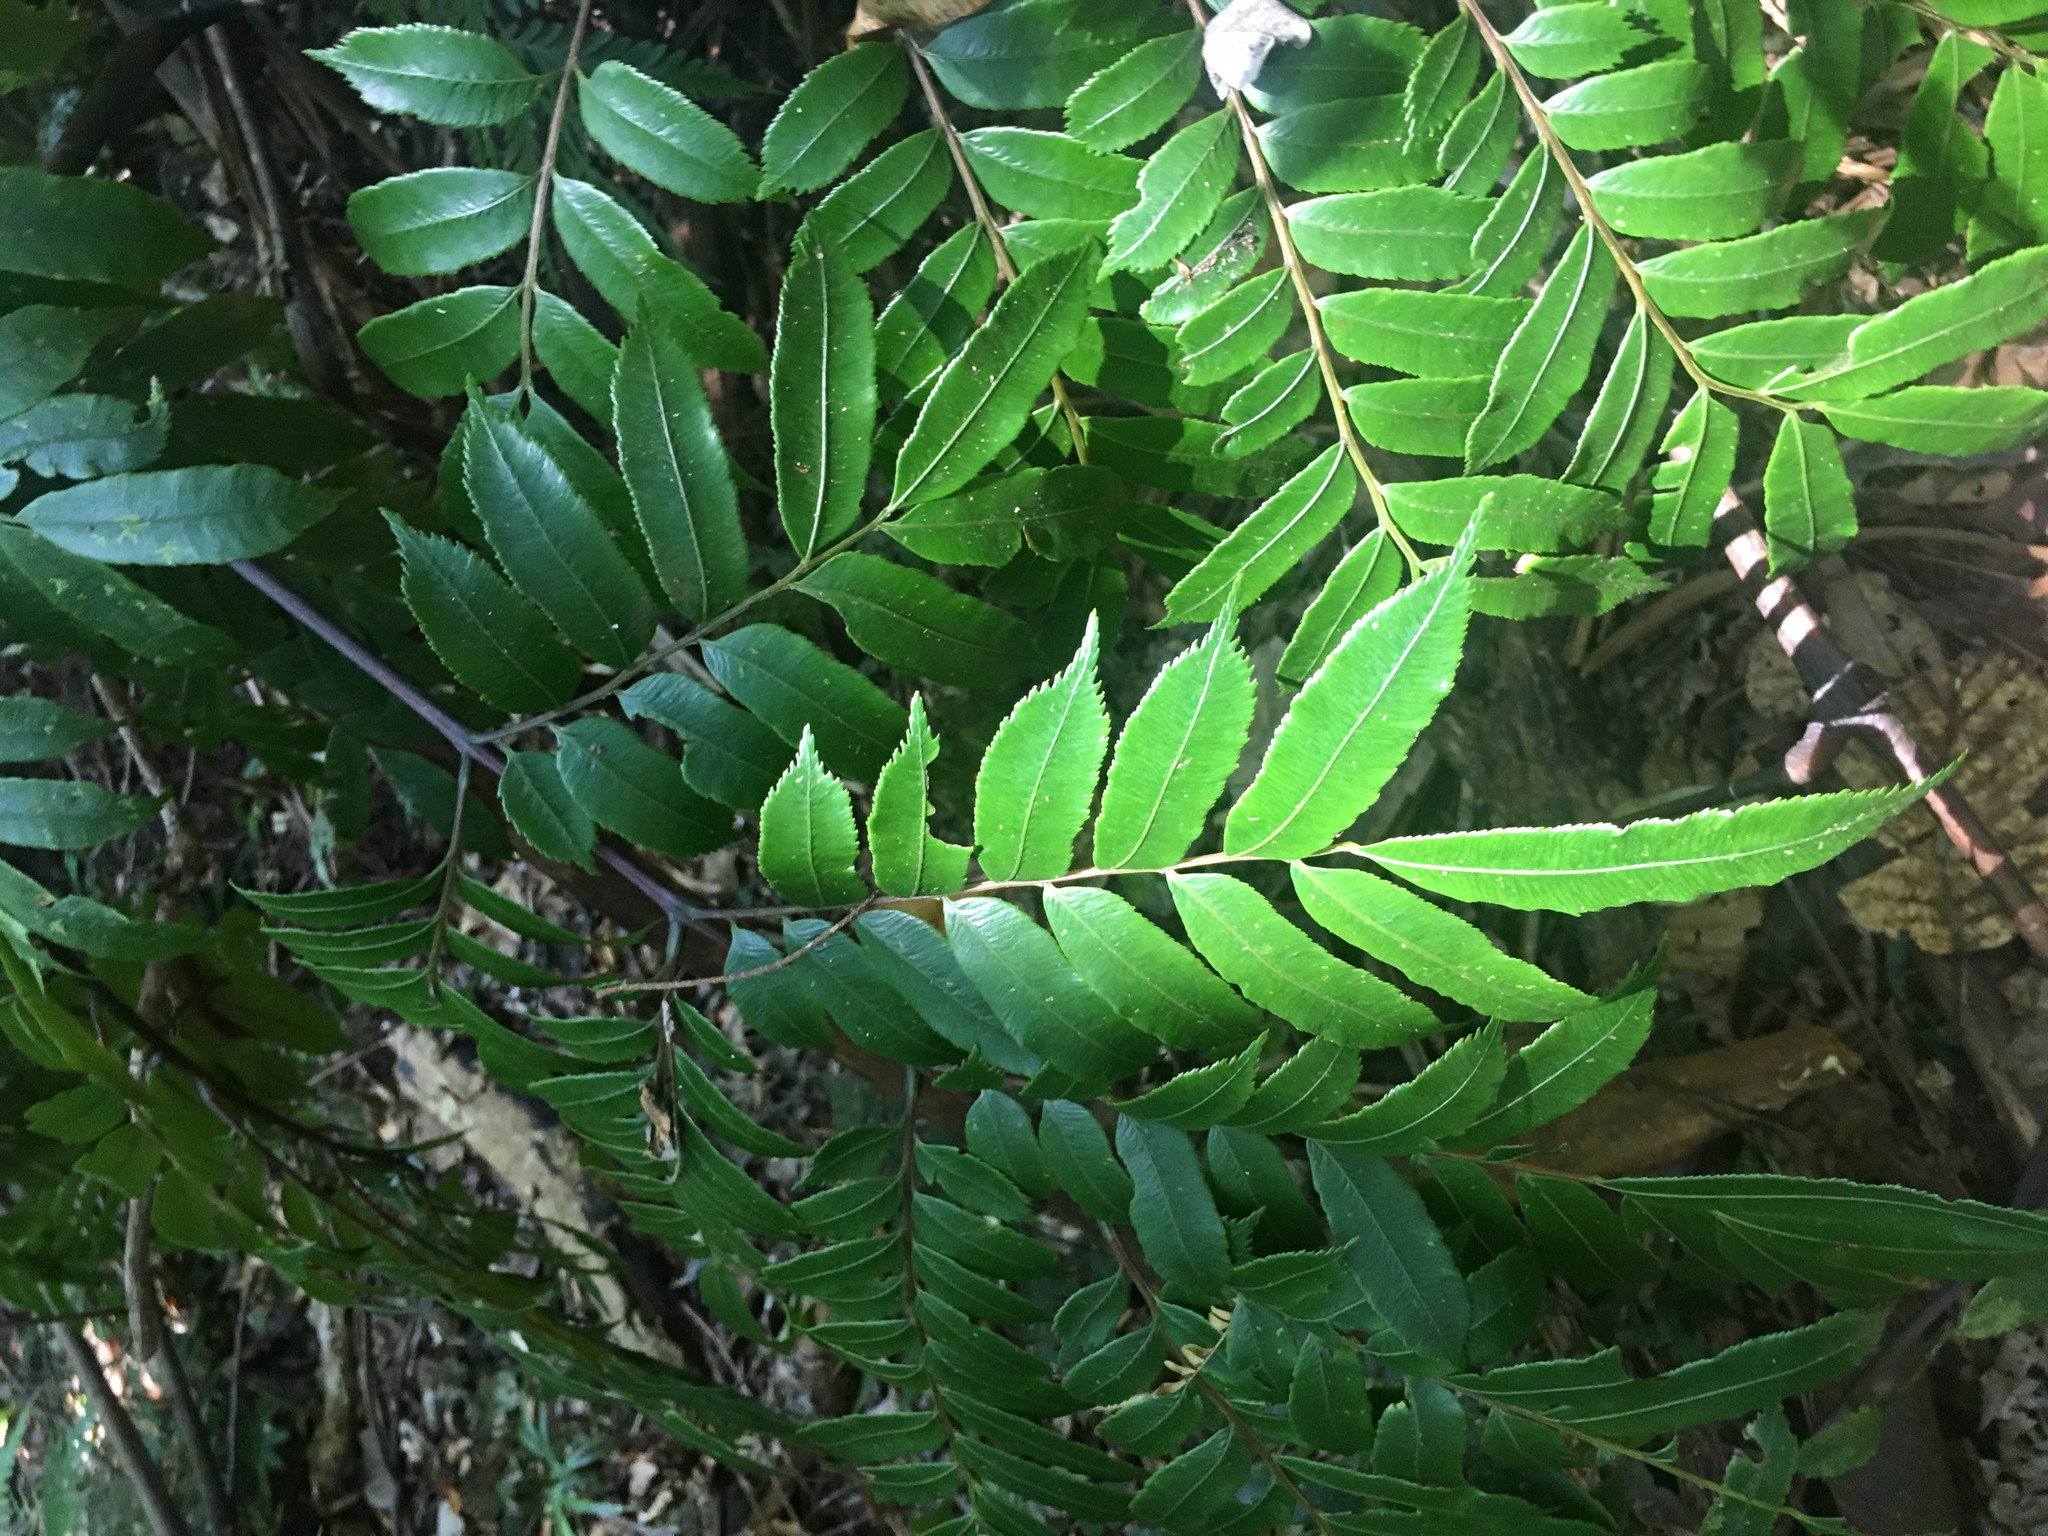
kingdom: Plantae
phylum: Tracheophyta
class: Polypodiopsida
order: Marattiales
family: Marattiaceae
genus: Ptisana
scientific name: Ptisana attenuata
